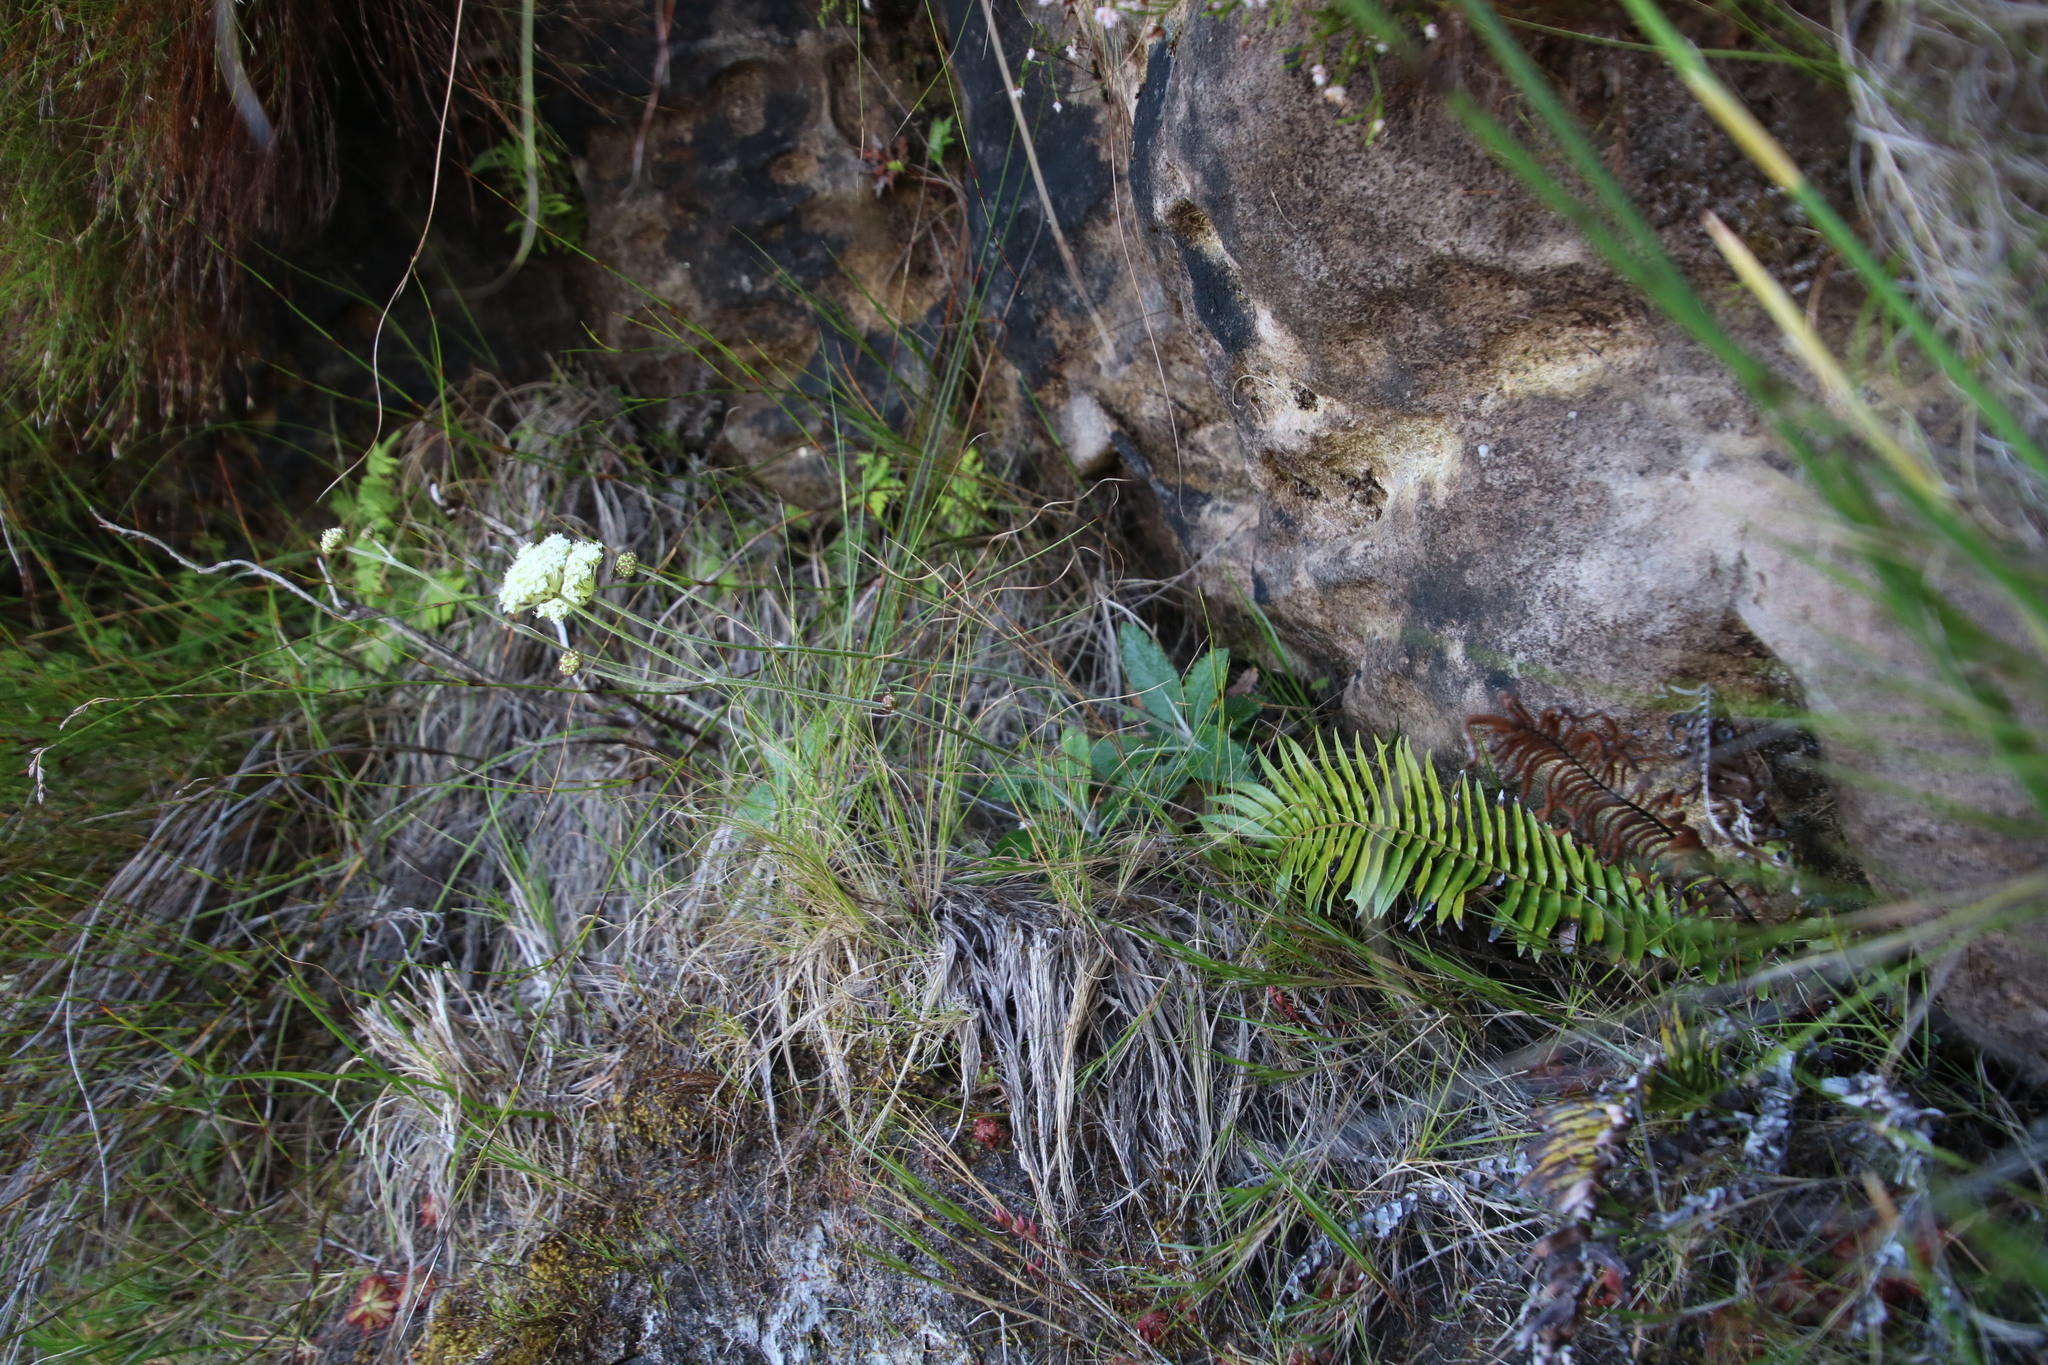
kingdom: Plantae
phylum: Tracheophyta
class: Magnoliopsida
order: Apiales
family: Apiaceae
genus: Hermas
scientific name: Hermas villosa
